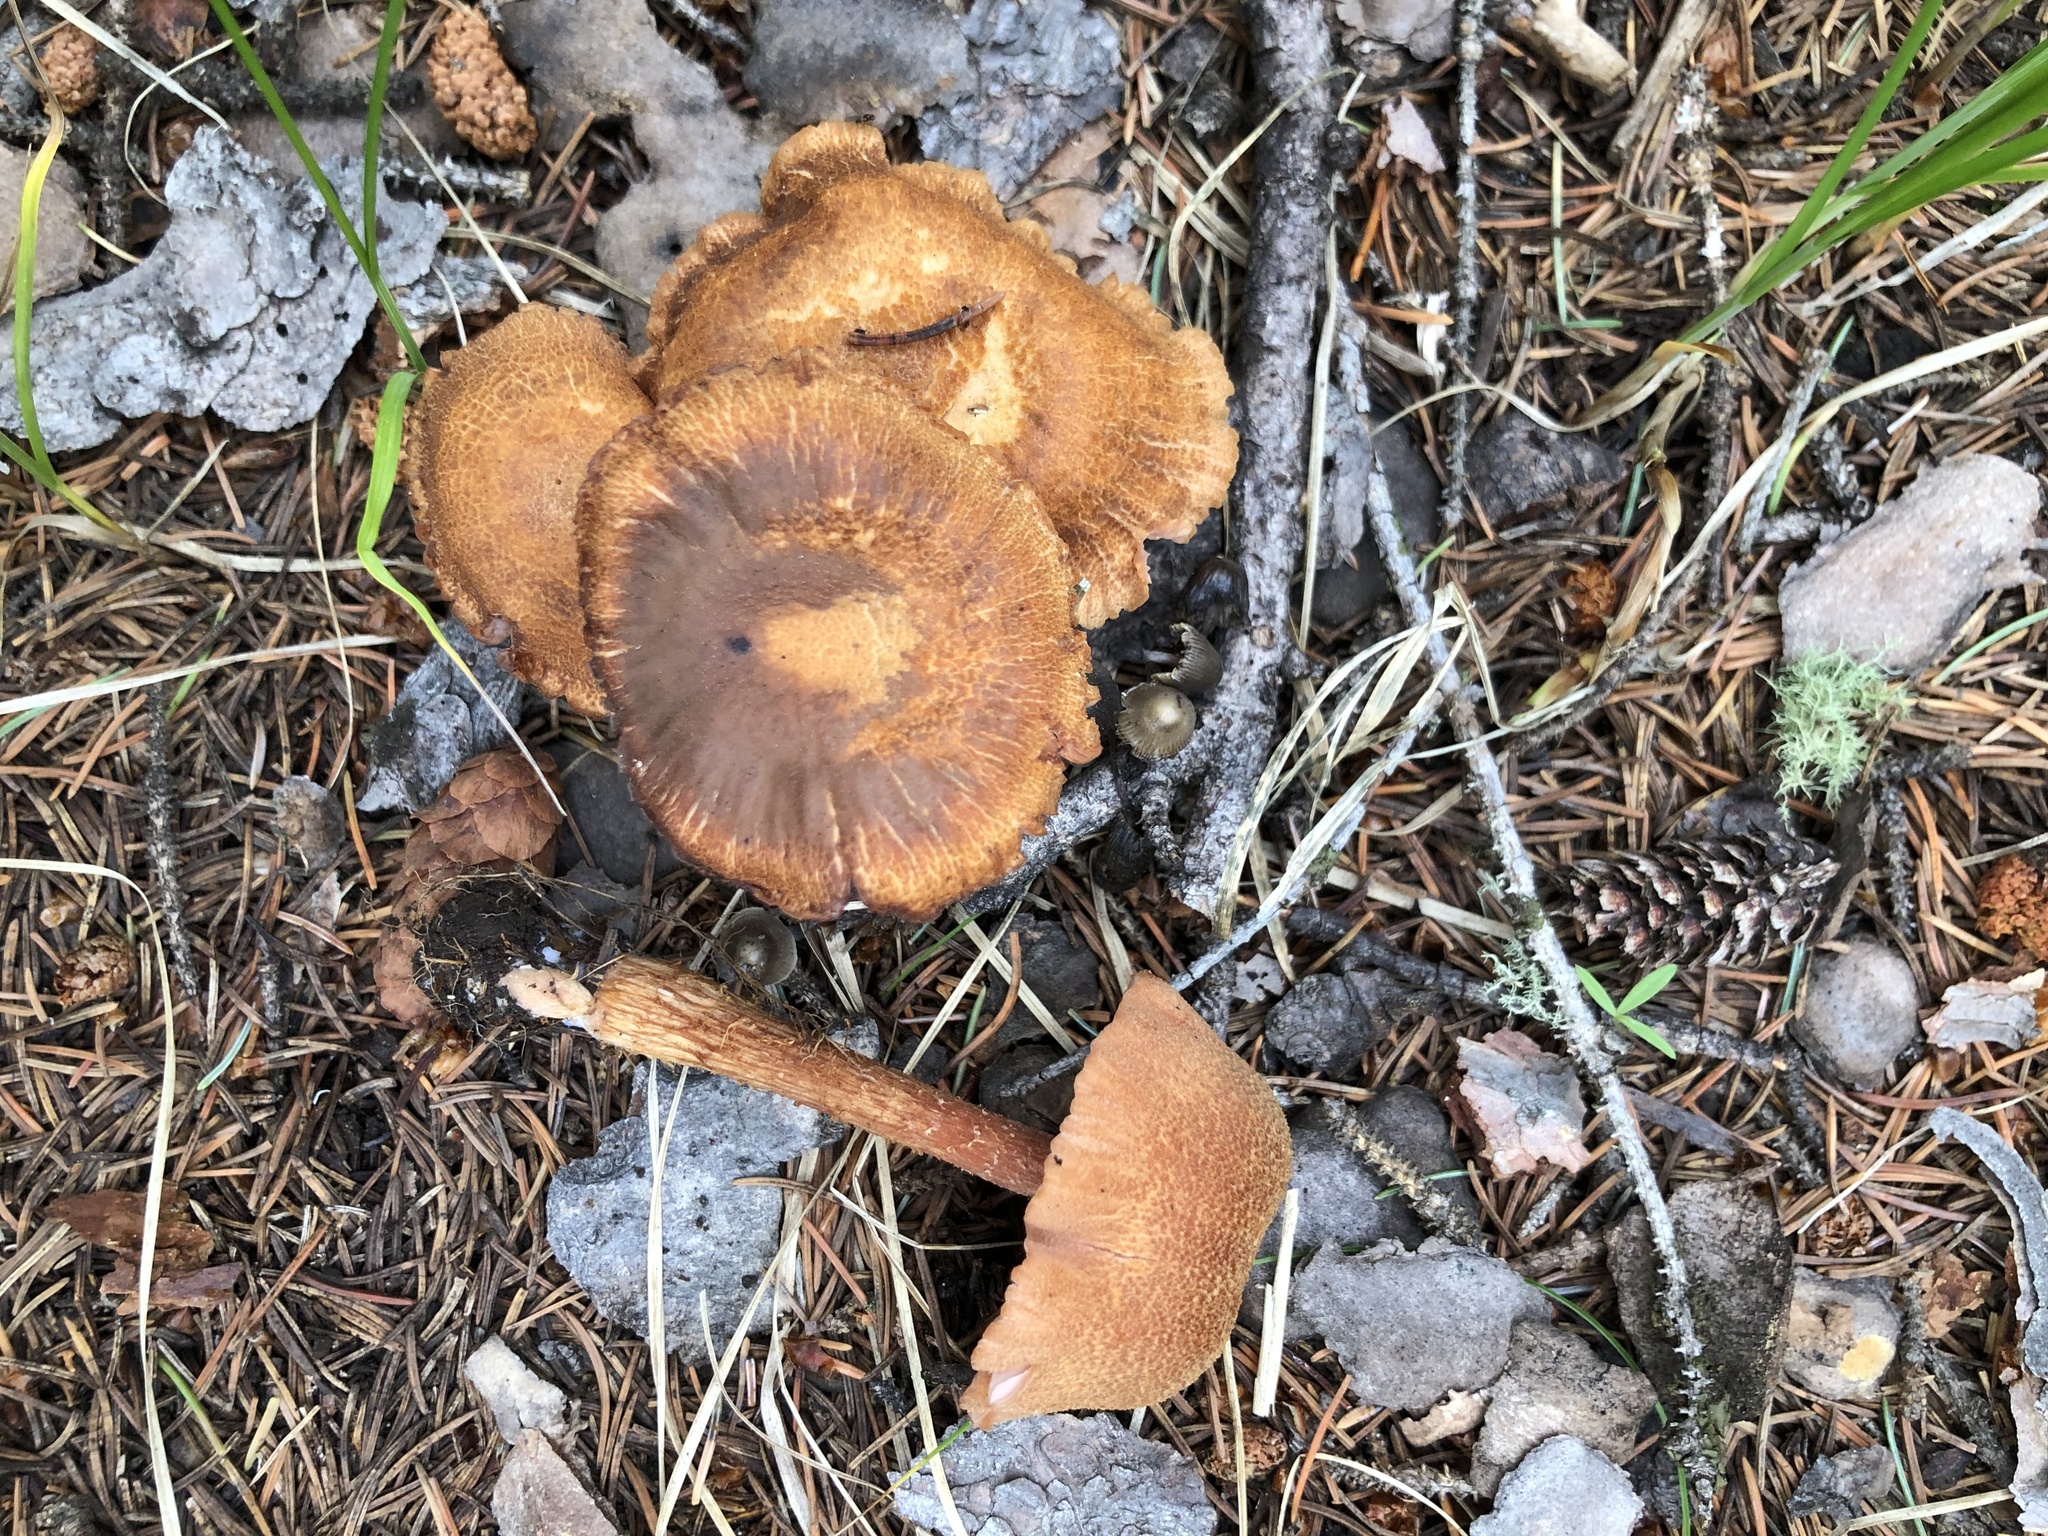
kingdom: Fungi
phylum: Basidiomycota
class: Agaricomycetes
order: Agaricales
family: Hydnangiaceae
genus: Laccaria
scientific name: Laccaria nobilis
